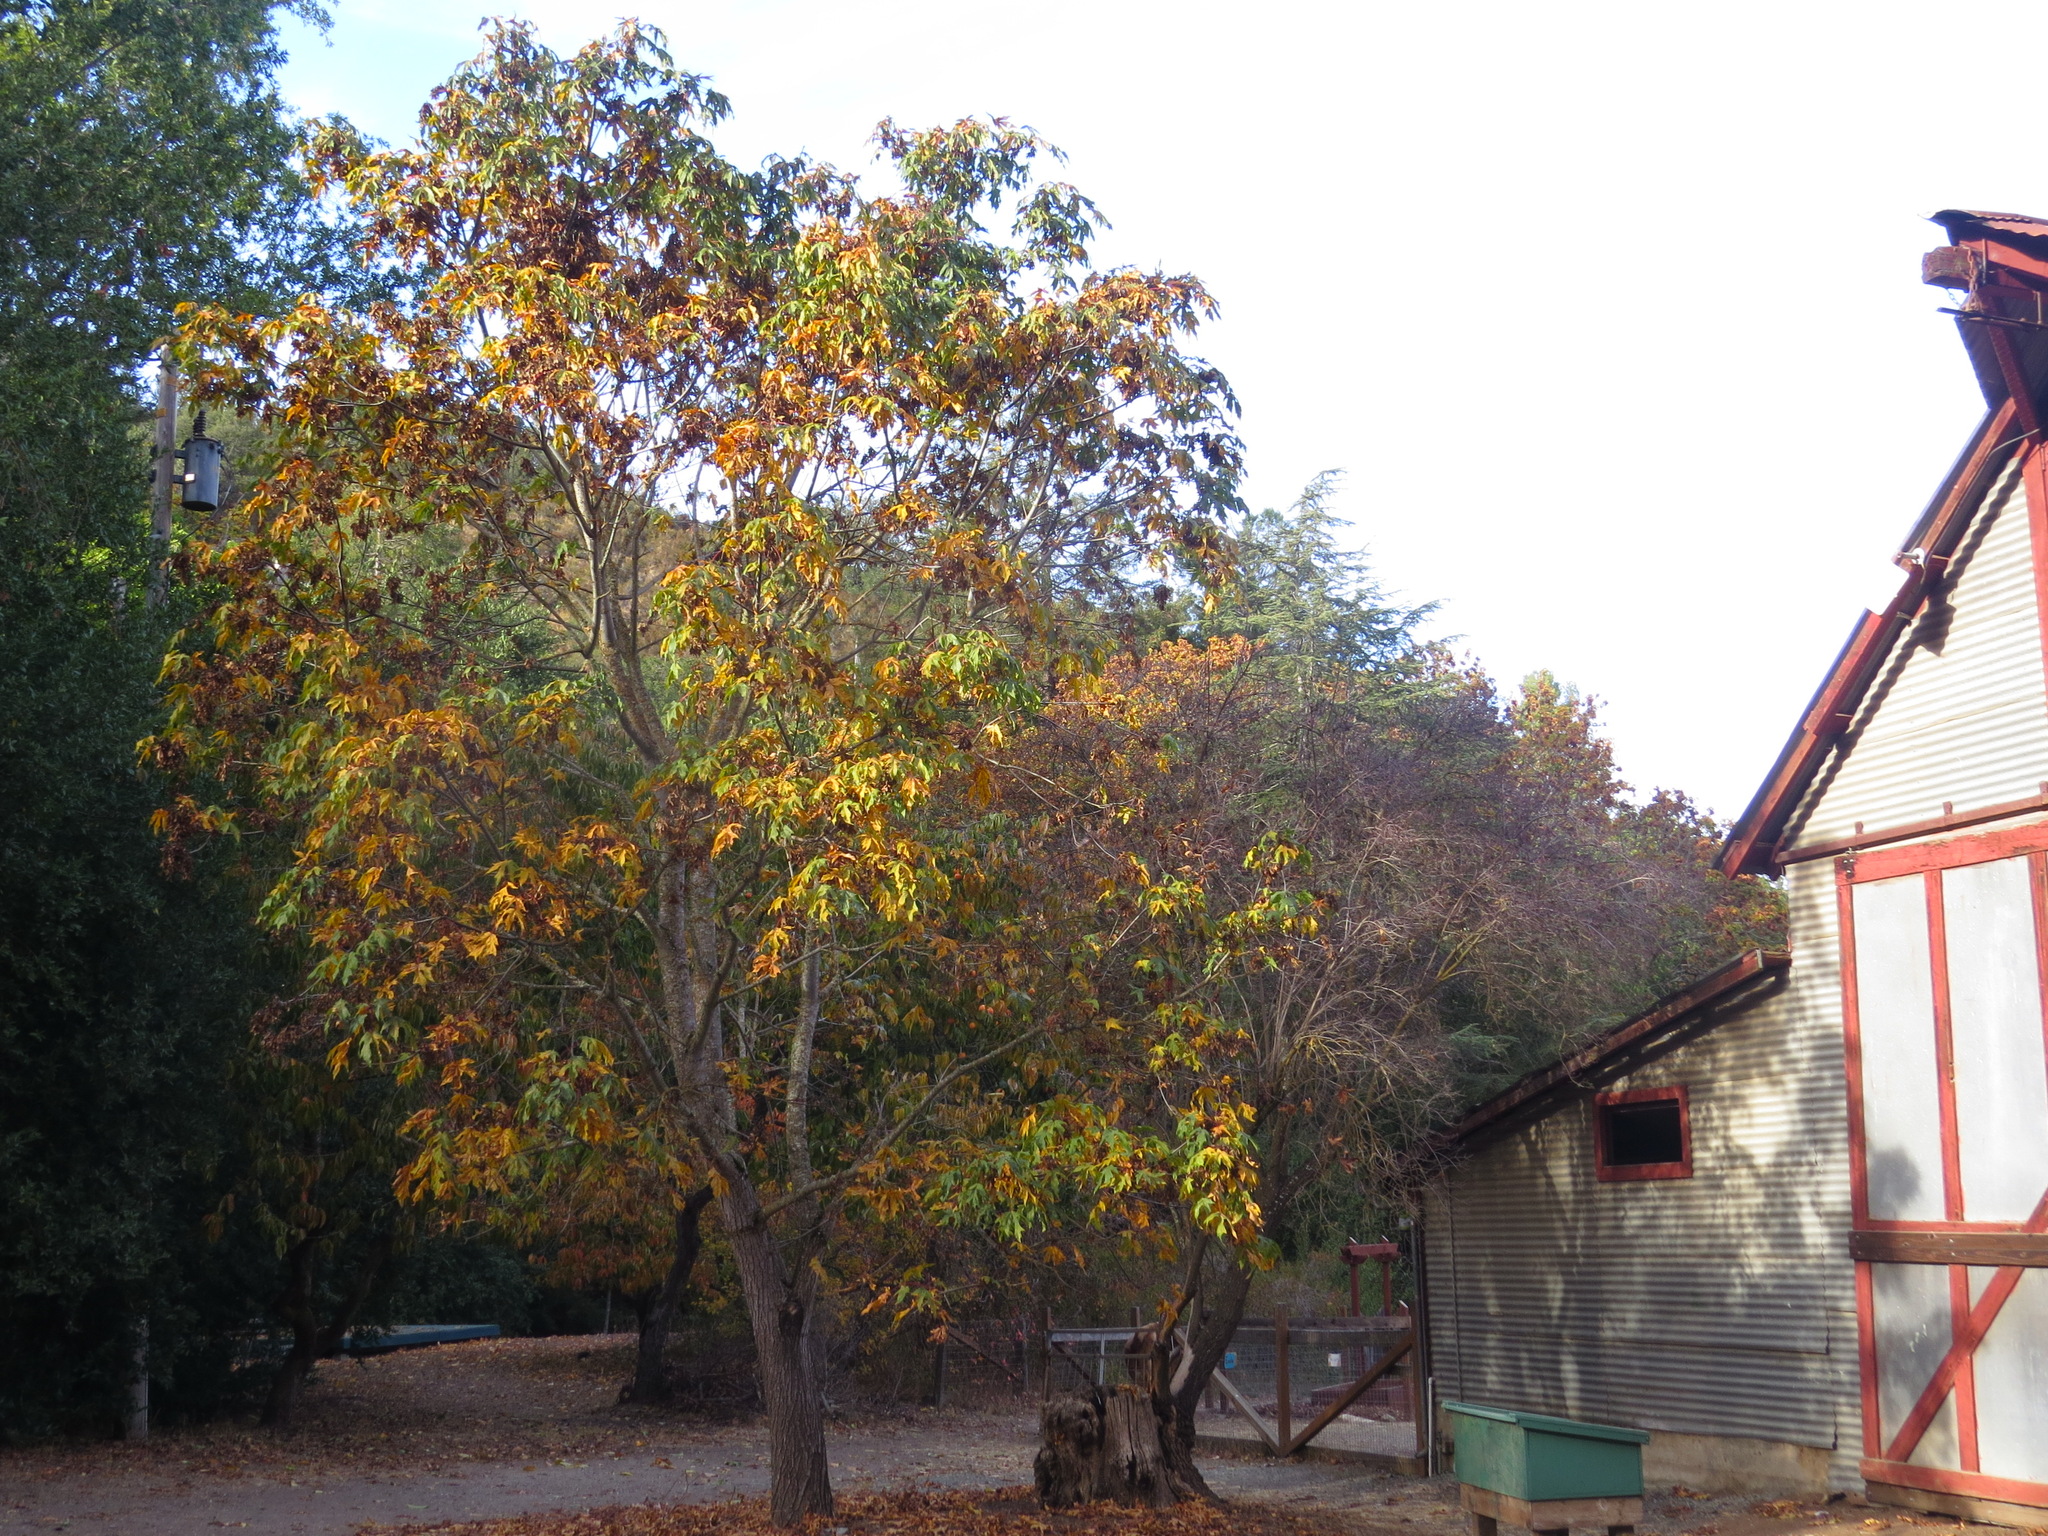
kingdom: Plantae
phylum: Tracheophyta
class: Magnoliopsida
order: Sapindales
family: Sapindaceae
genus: Acer
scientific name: Acer macrophyllum
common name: Oregon maple
